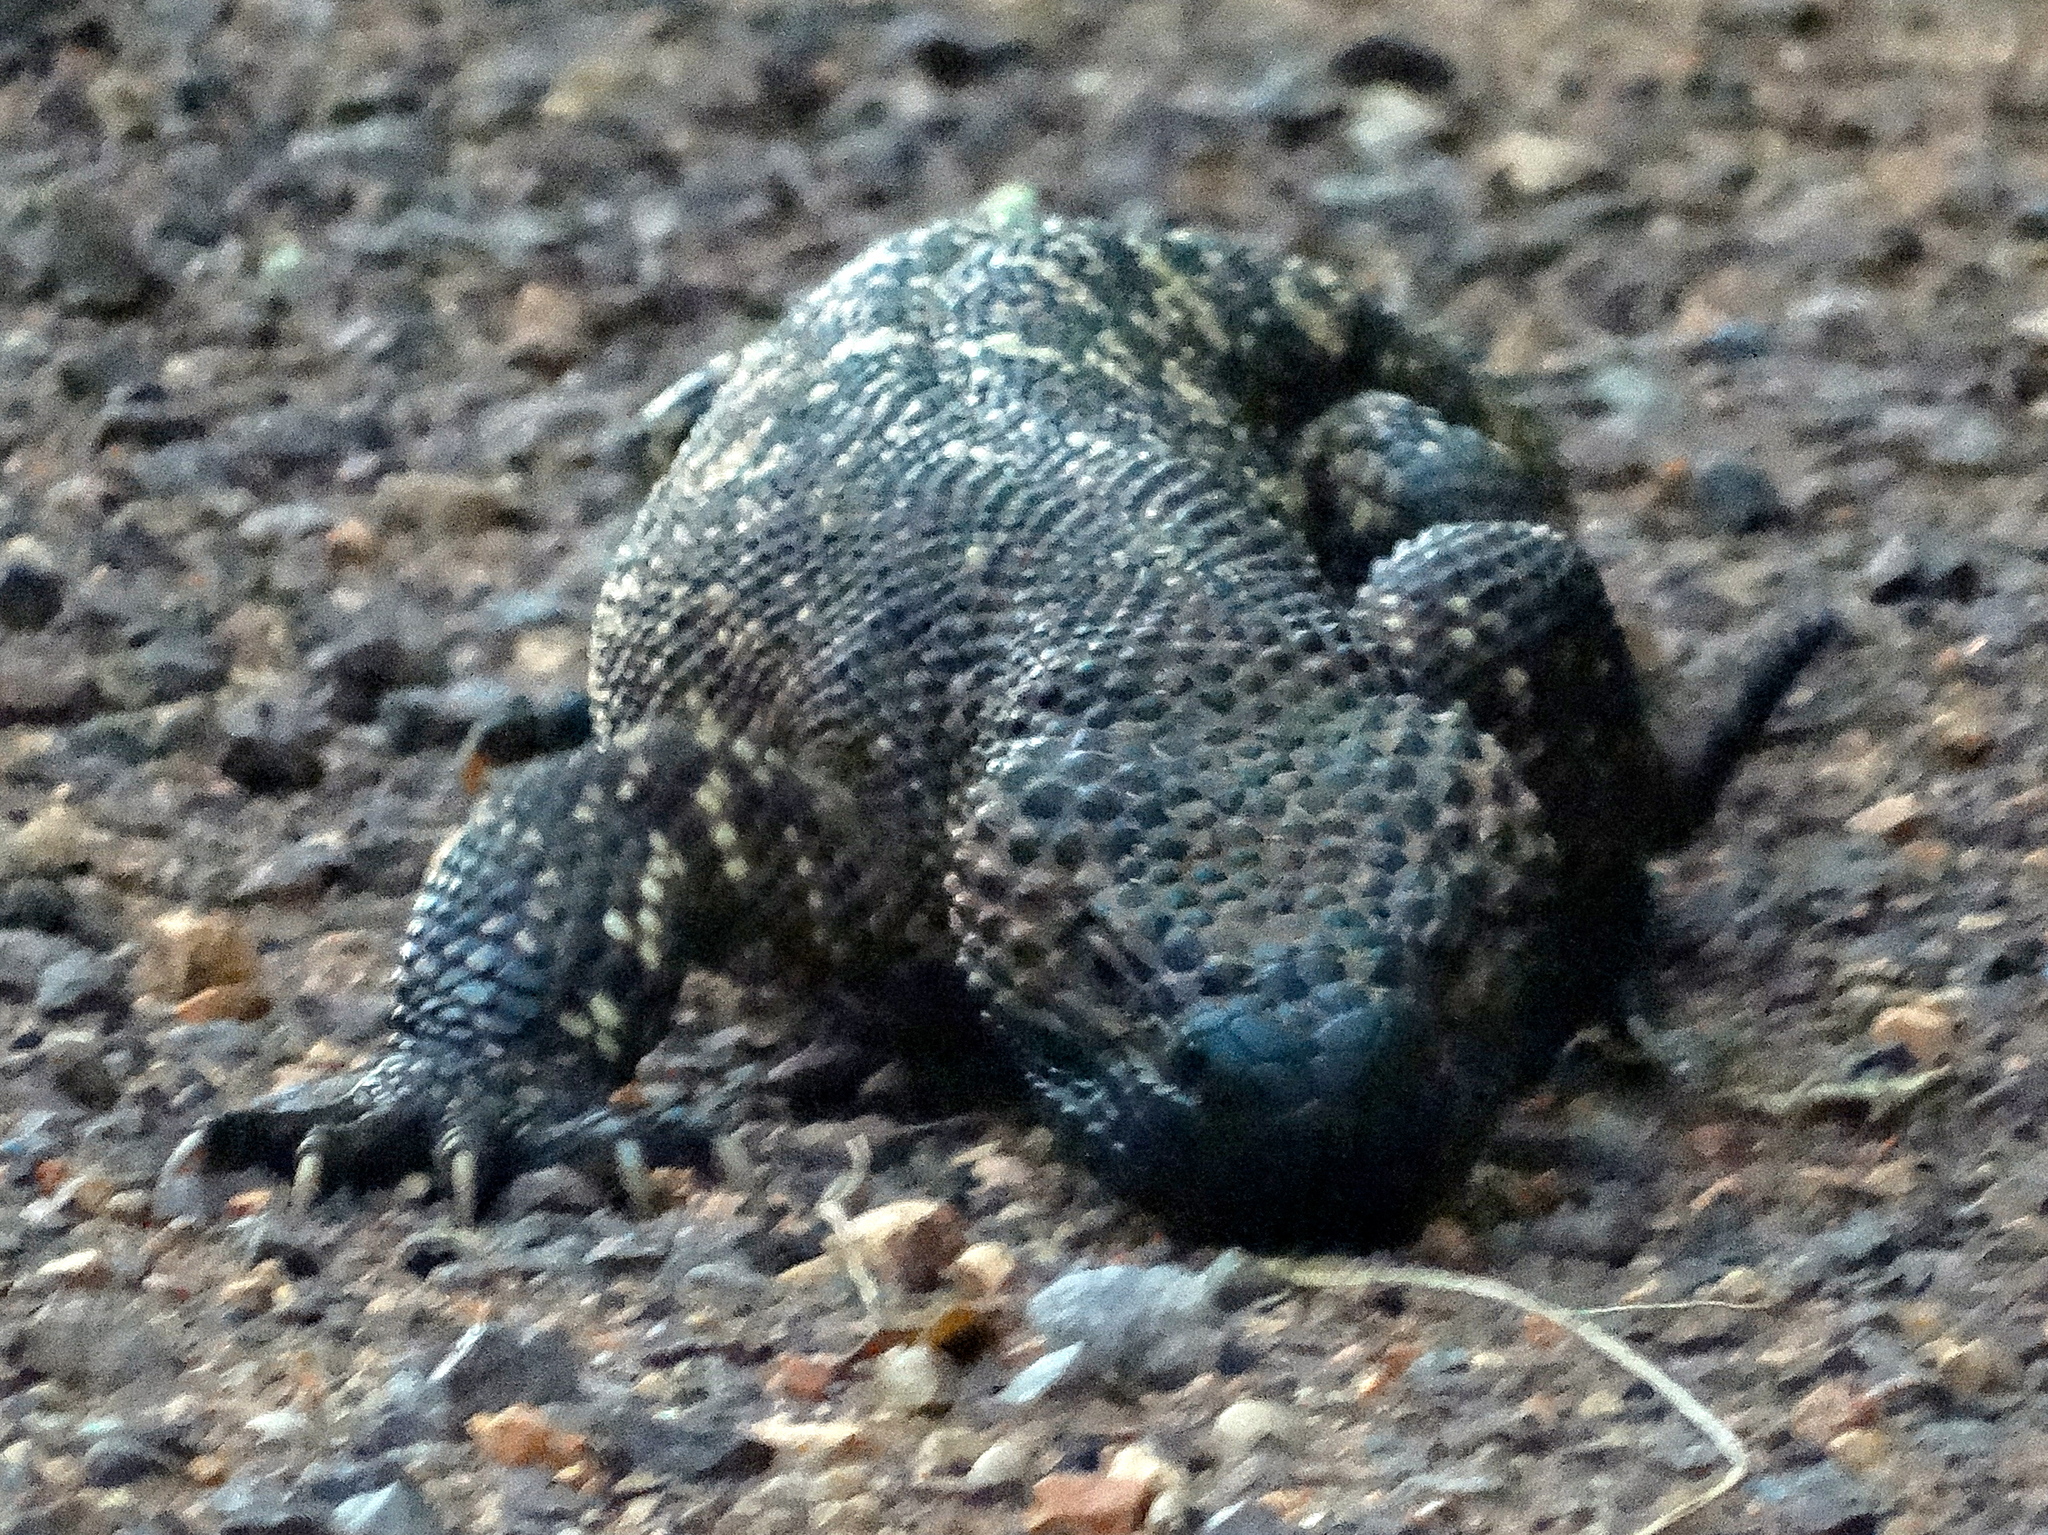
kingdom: Animalia
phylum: Chordata
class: Squamata
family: Helodermatidae
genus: Heloderma
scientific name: Heloderma horridum
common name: Mexican beaded lizard
